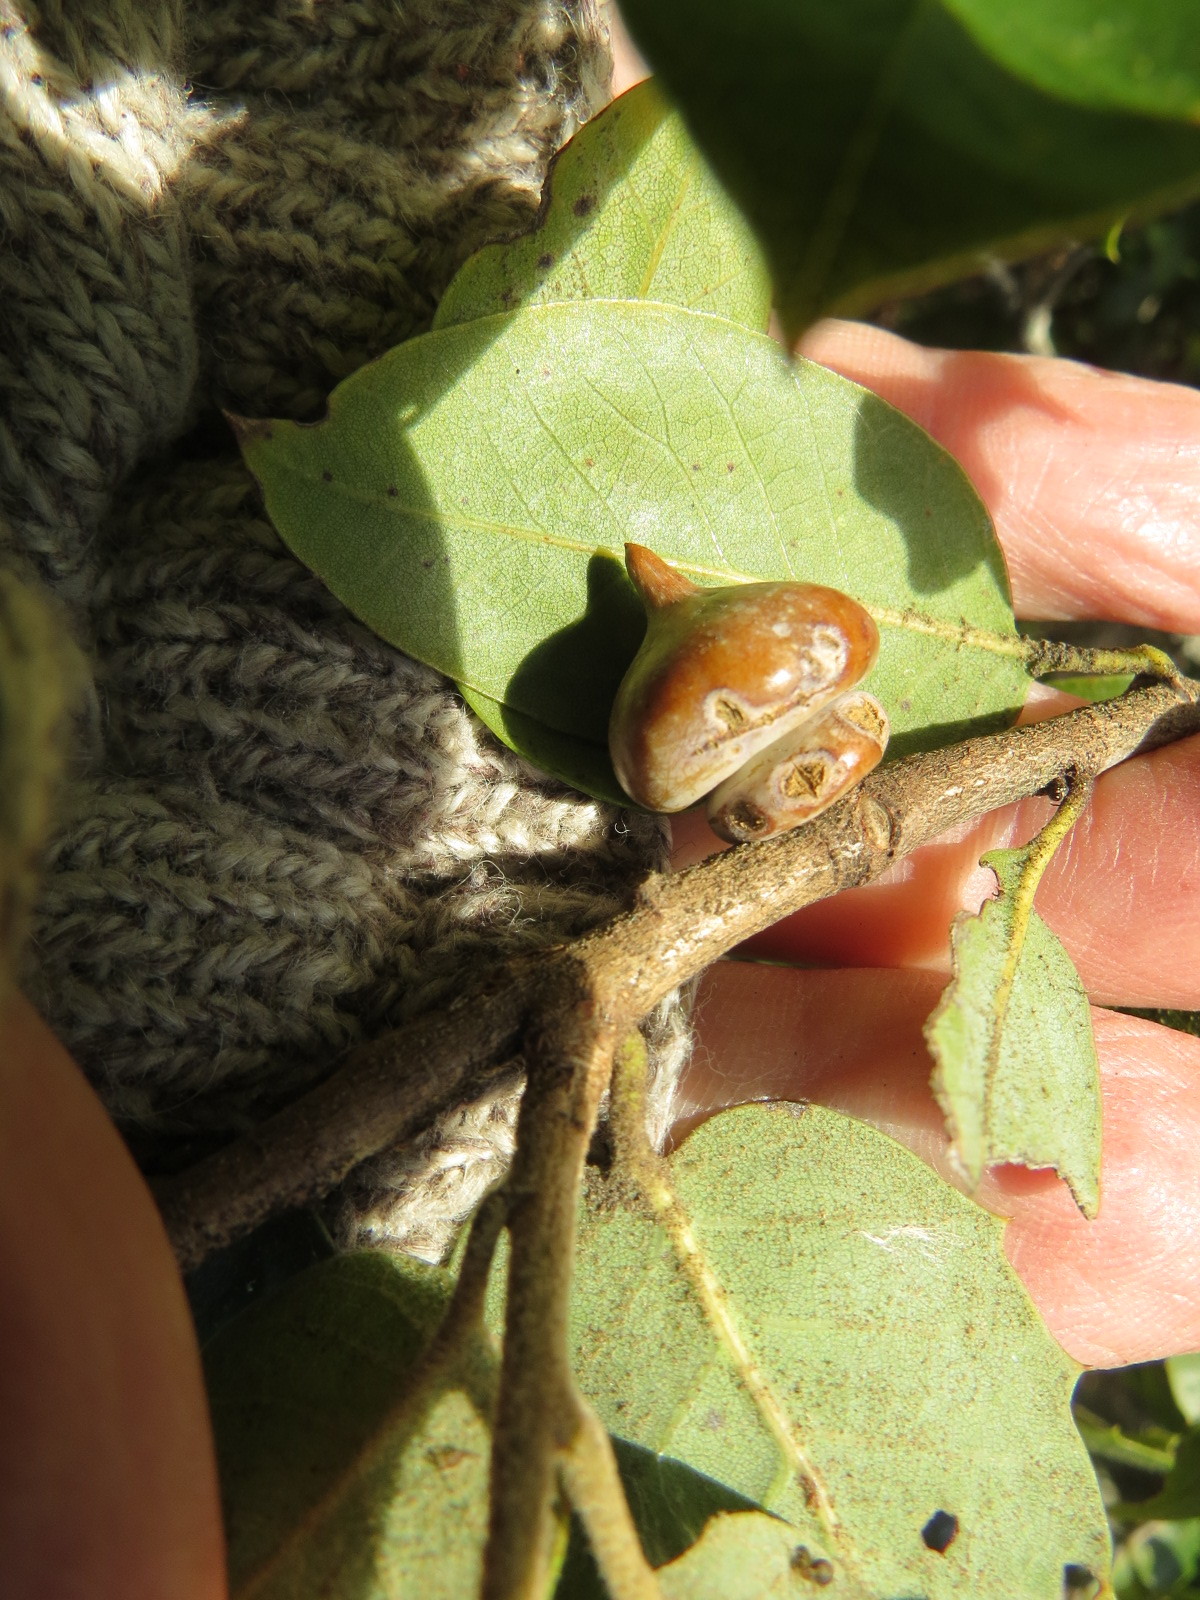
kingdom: Animalia
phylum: Arthropoda
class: Insecta
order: Hymenoptera
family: Cynipidae
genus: Heteroecus
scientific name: Heteroecus
